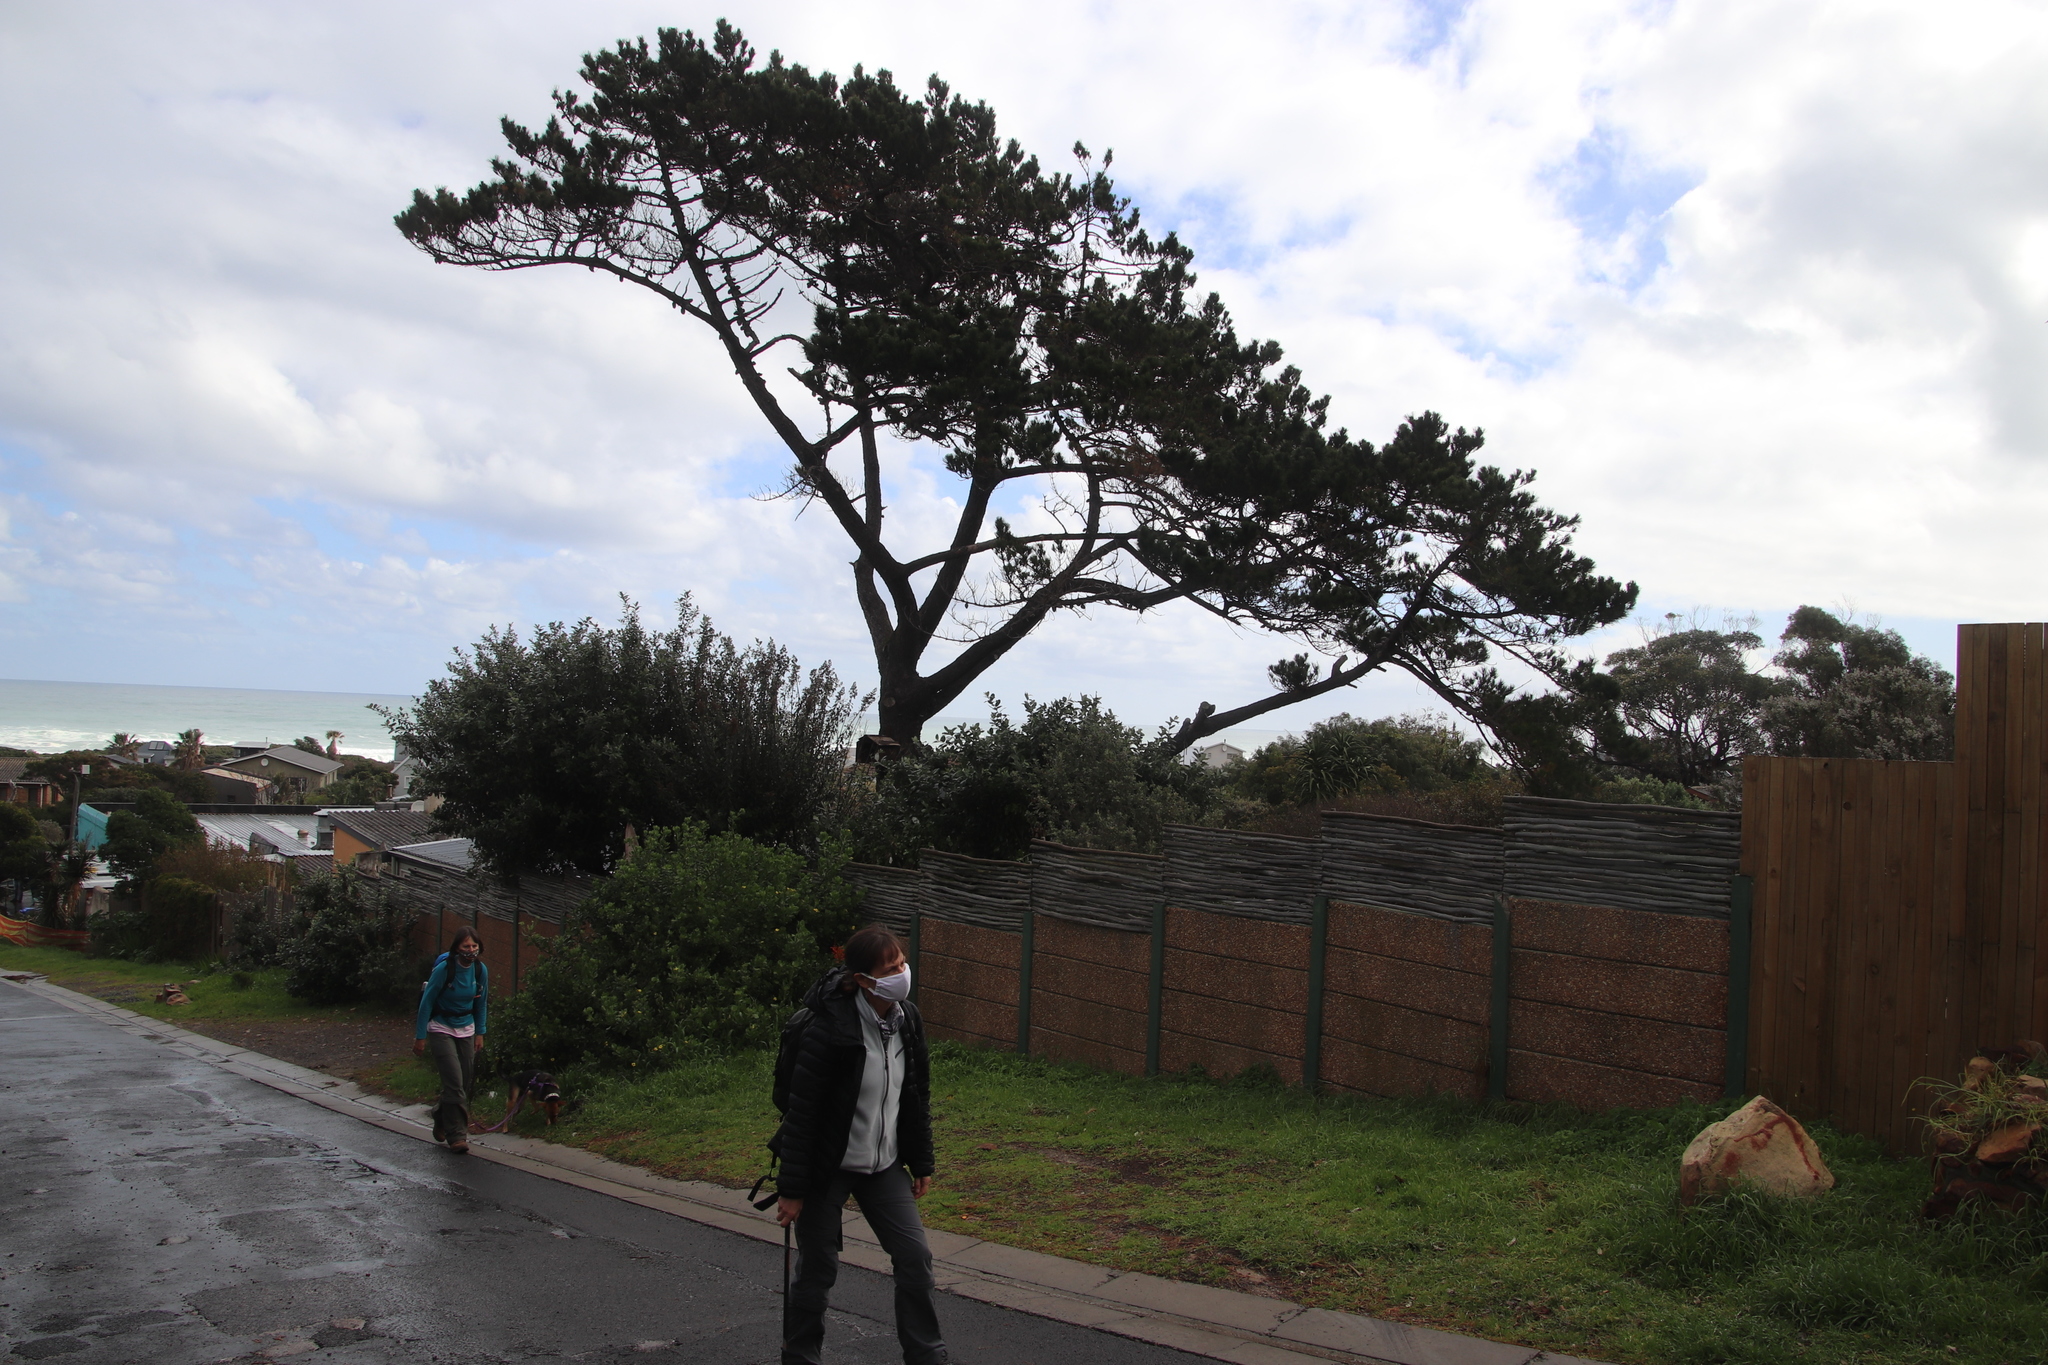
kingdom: Plantae
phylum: Tracheophyta
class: Pinopsida
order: Pinales
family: Pinaceae
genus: Pinus
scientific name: Pinus radiata
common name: Monterey pine
